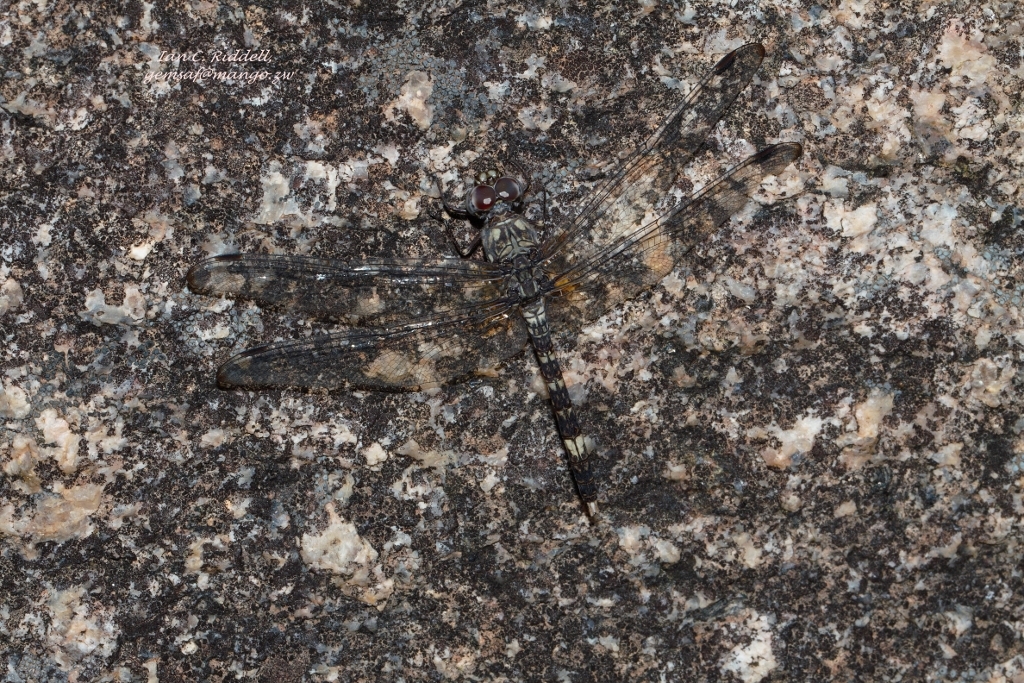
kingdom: Animalia
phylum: Arthropoda
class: Insecta
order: Odonata
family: Libellulidae
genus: Bradinopyga
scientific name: Bradinopyga cornuta
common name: Flecked wall-skimmer
